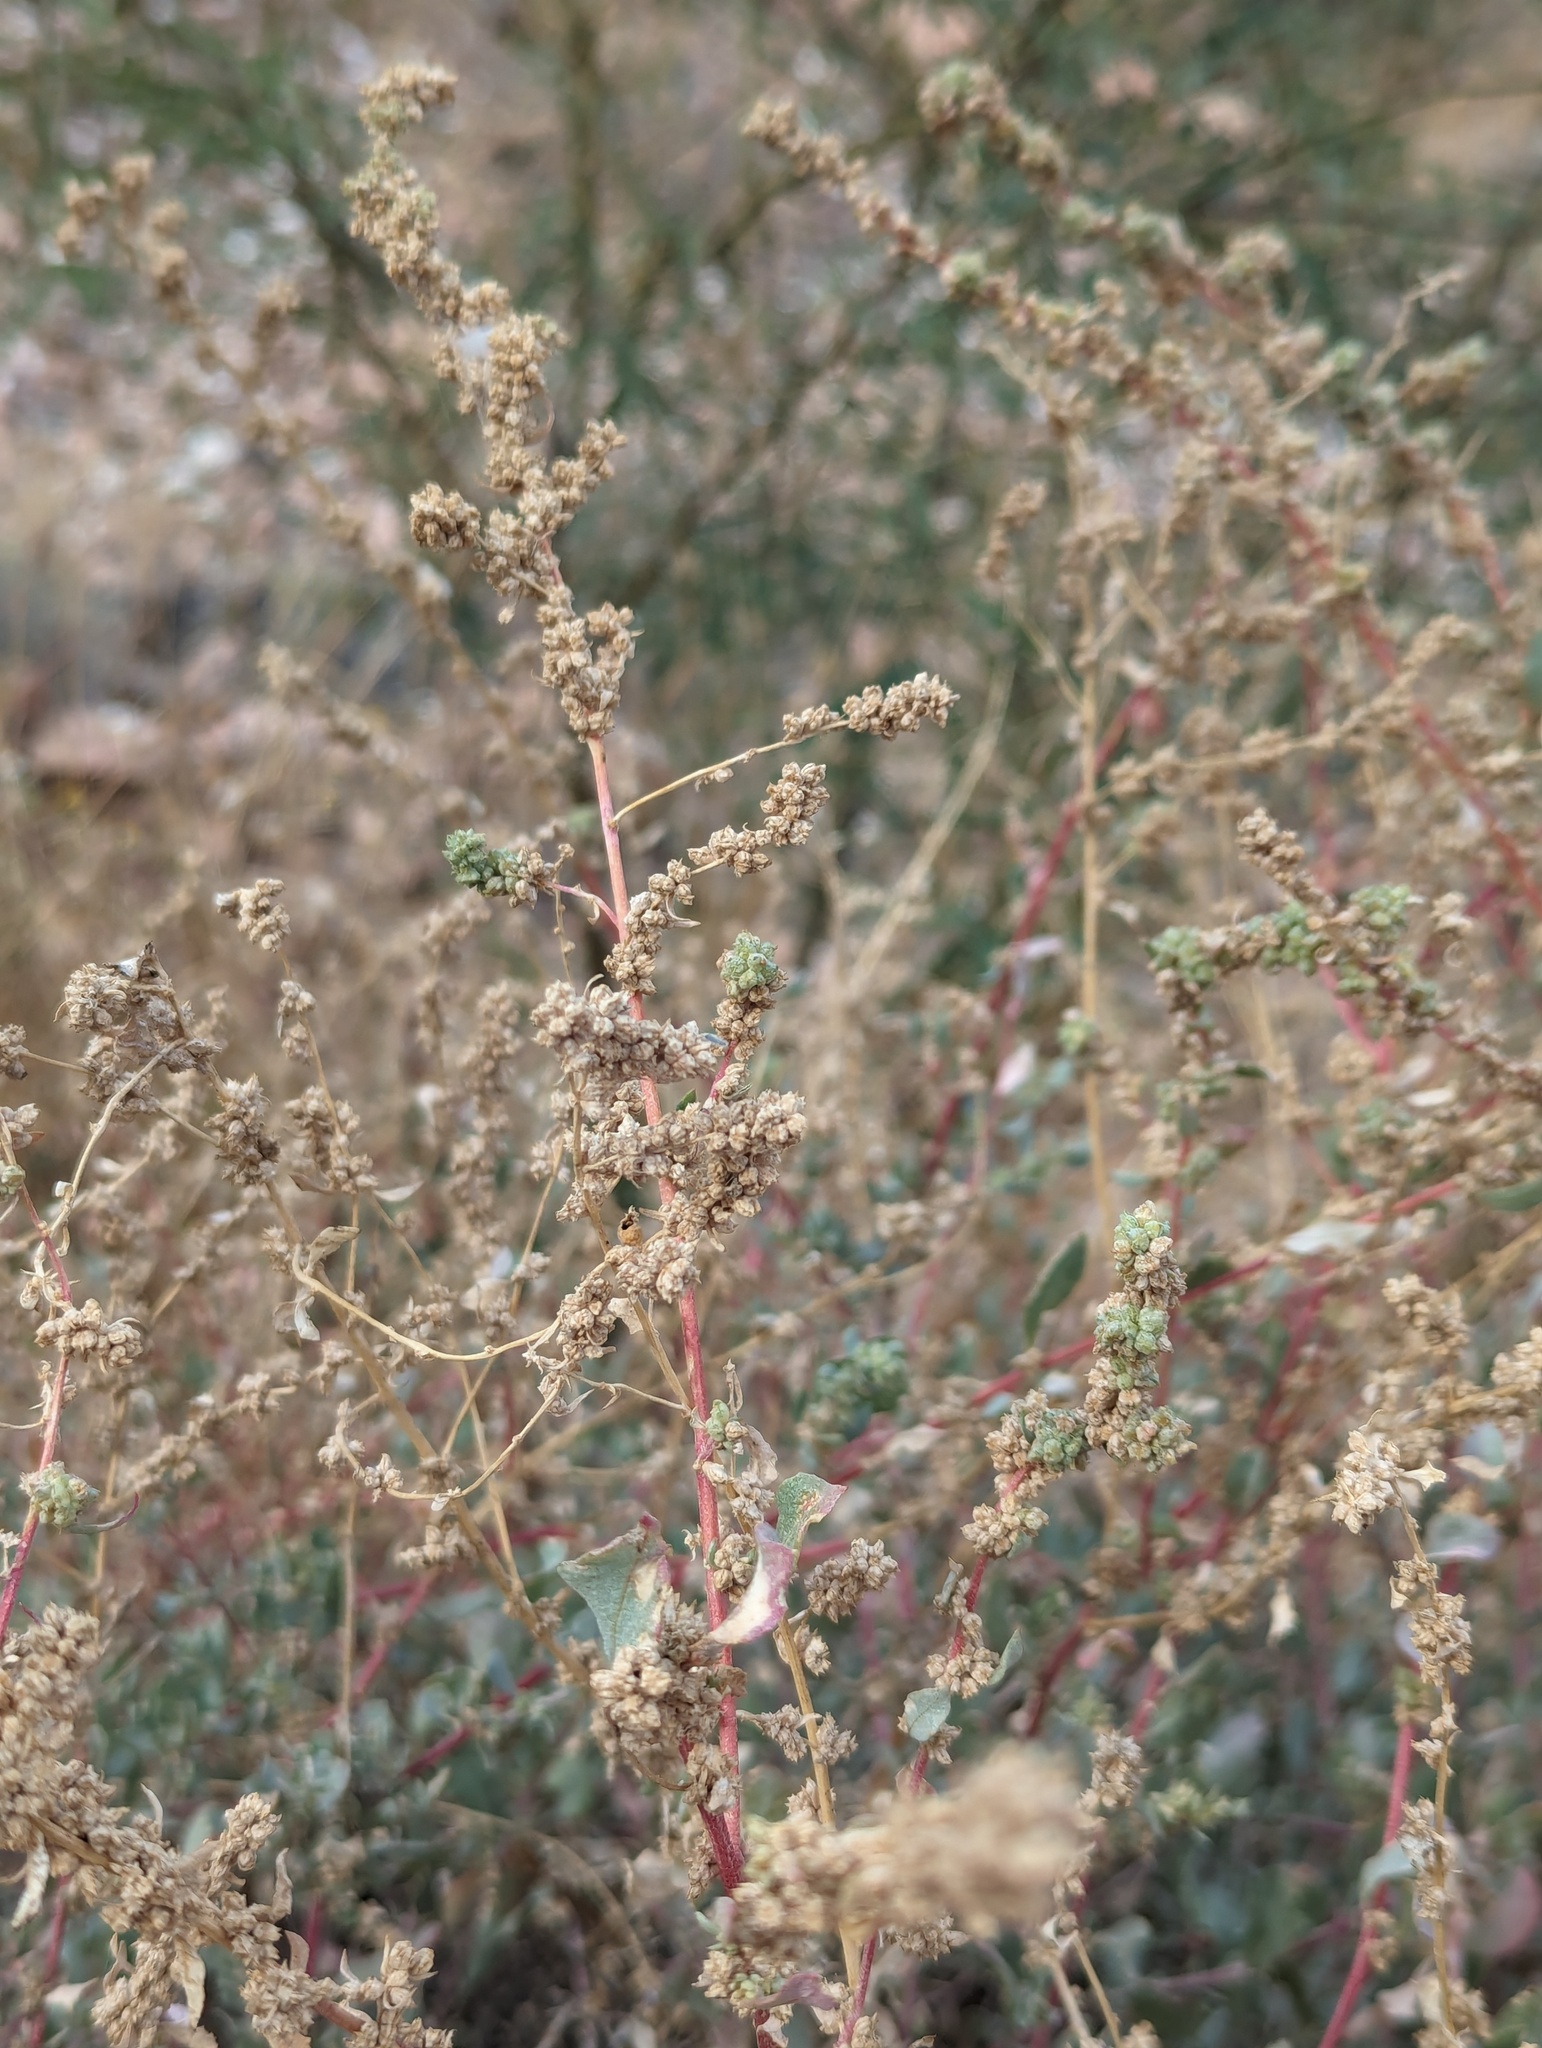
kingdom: Plantae
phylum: Tracheophyta
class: Magnoliopsida
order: Caryophyllales
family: Amaranthaceae
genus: Atriplex
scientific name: Atriplex barclayana
